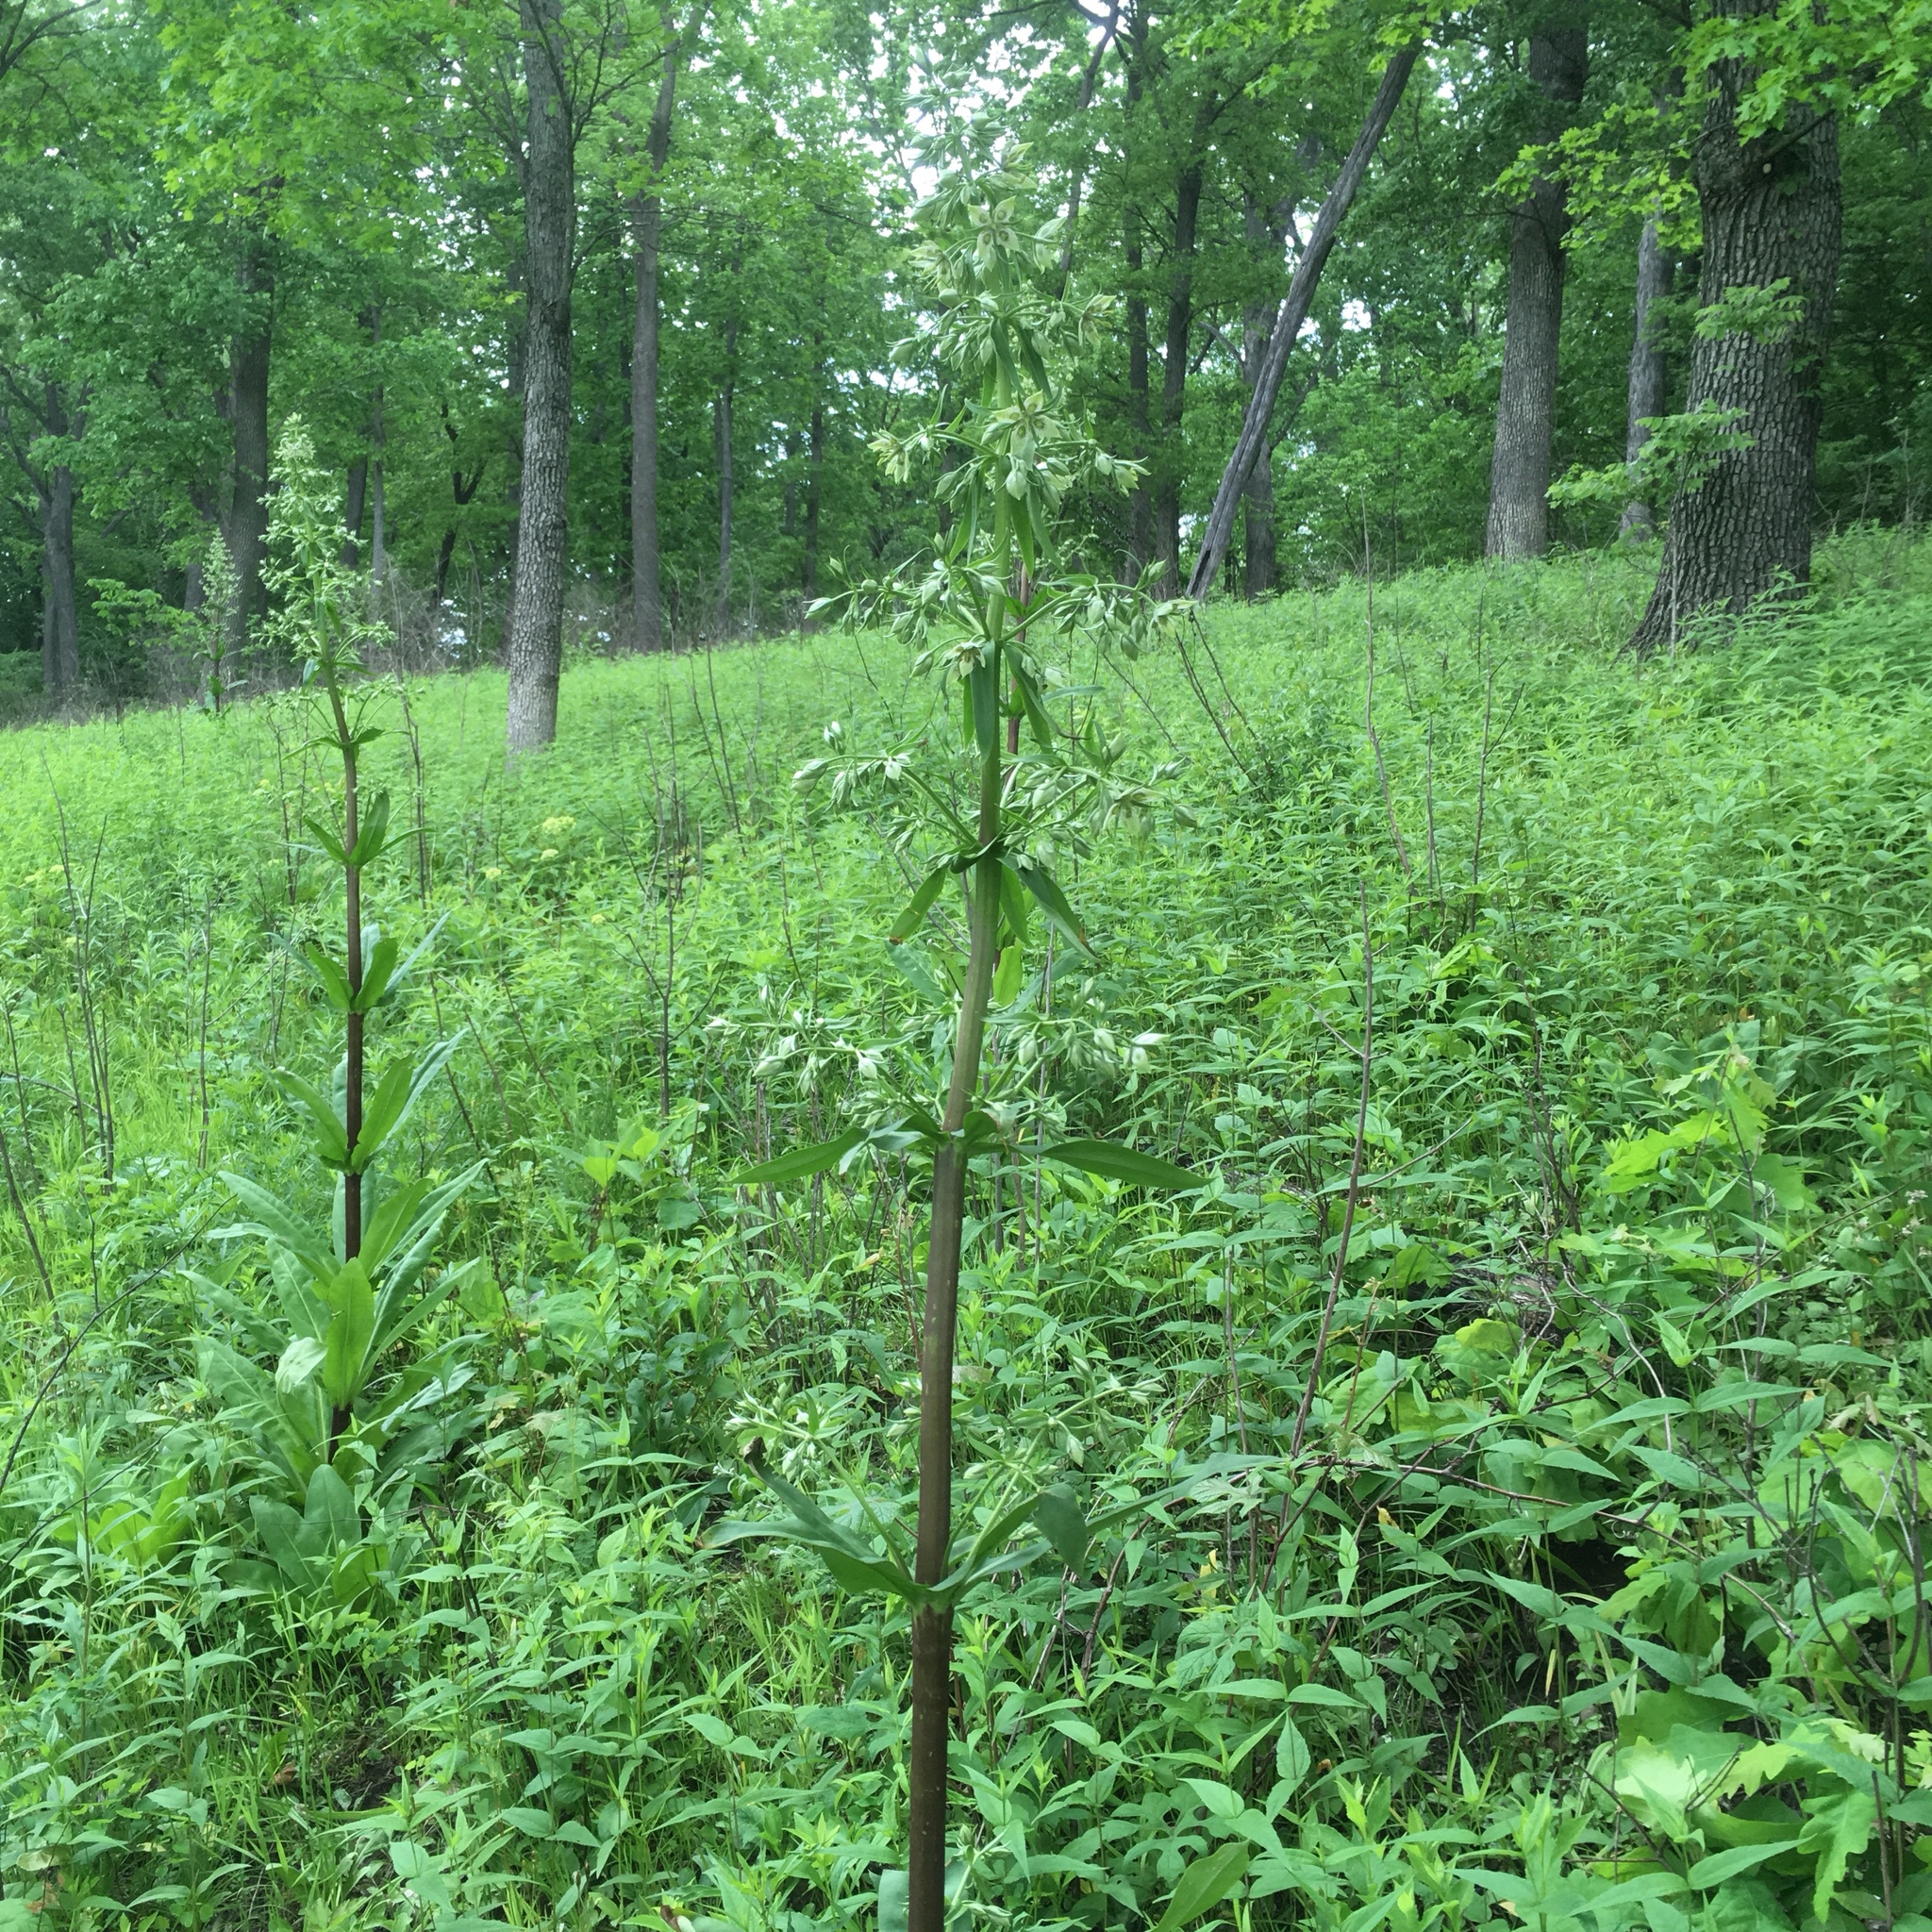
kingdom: Plantae
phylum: Tracheophyta
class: Magnoliopsida
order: Gentianales
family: Gentianaceae
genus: Frasera
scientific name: Frasera caroliniensis
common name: American columbo
